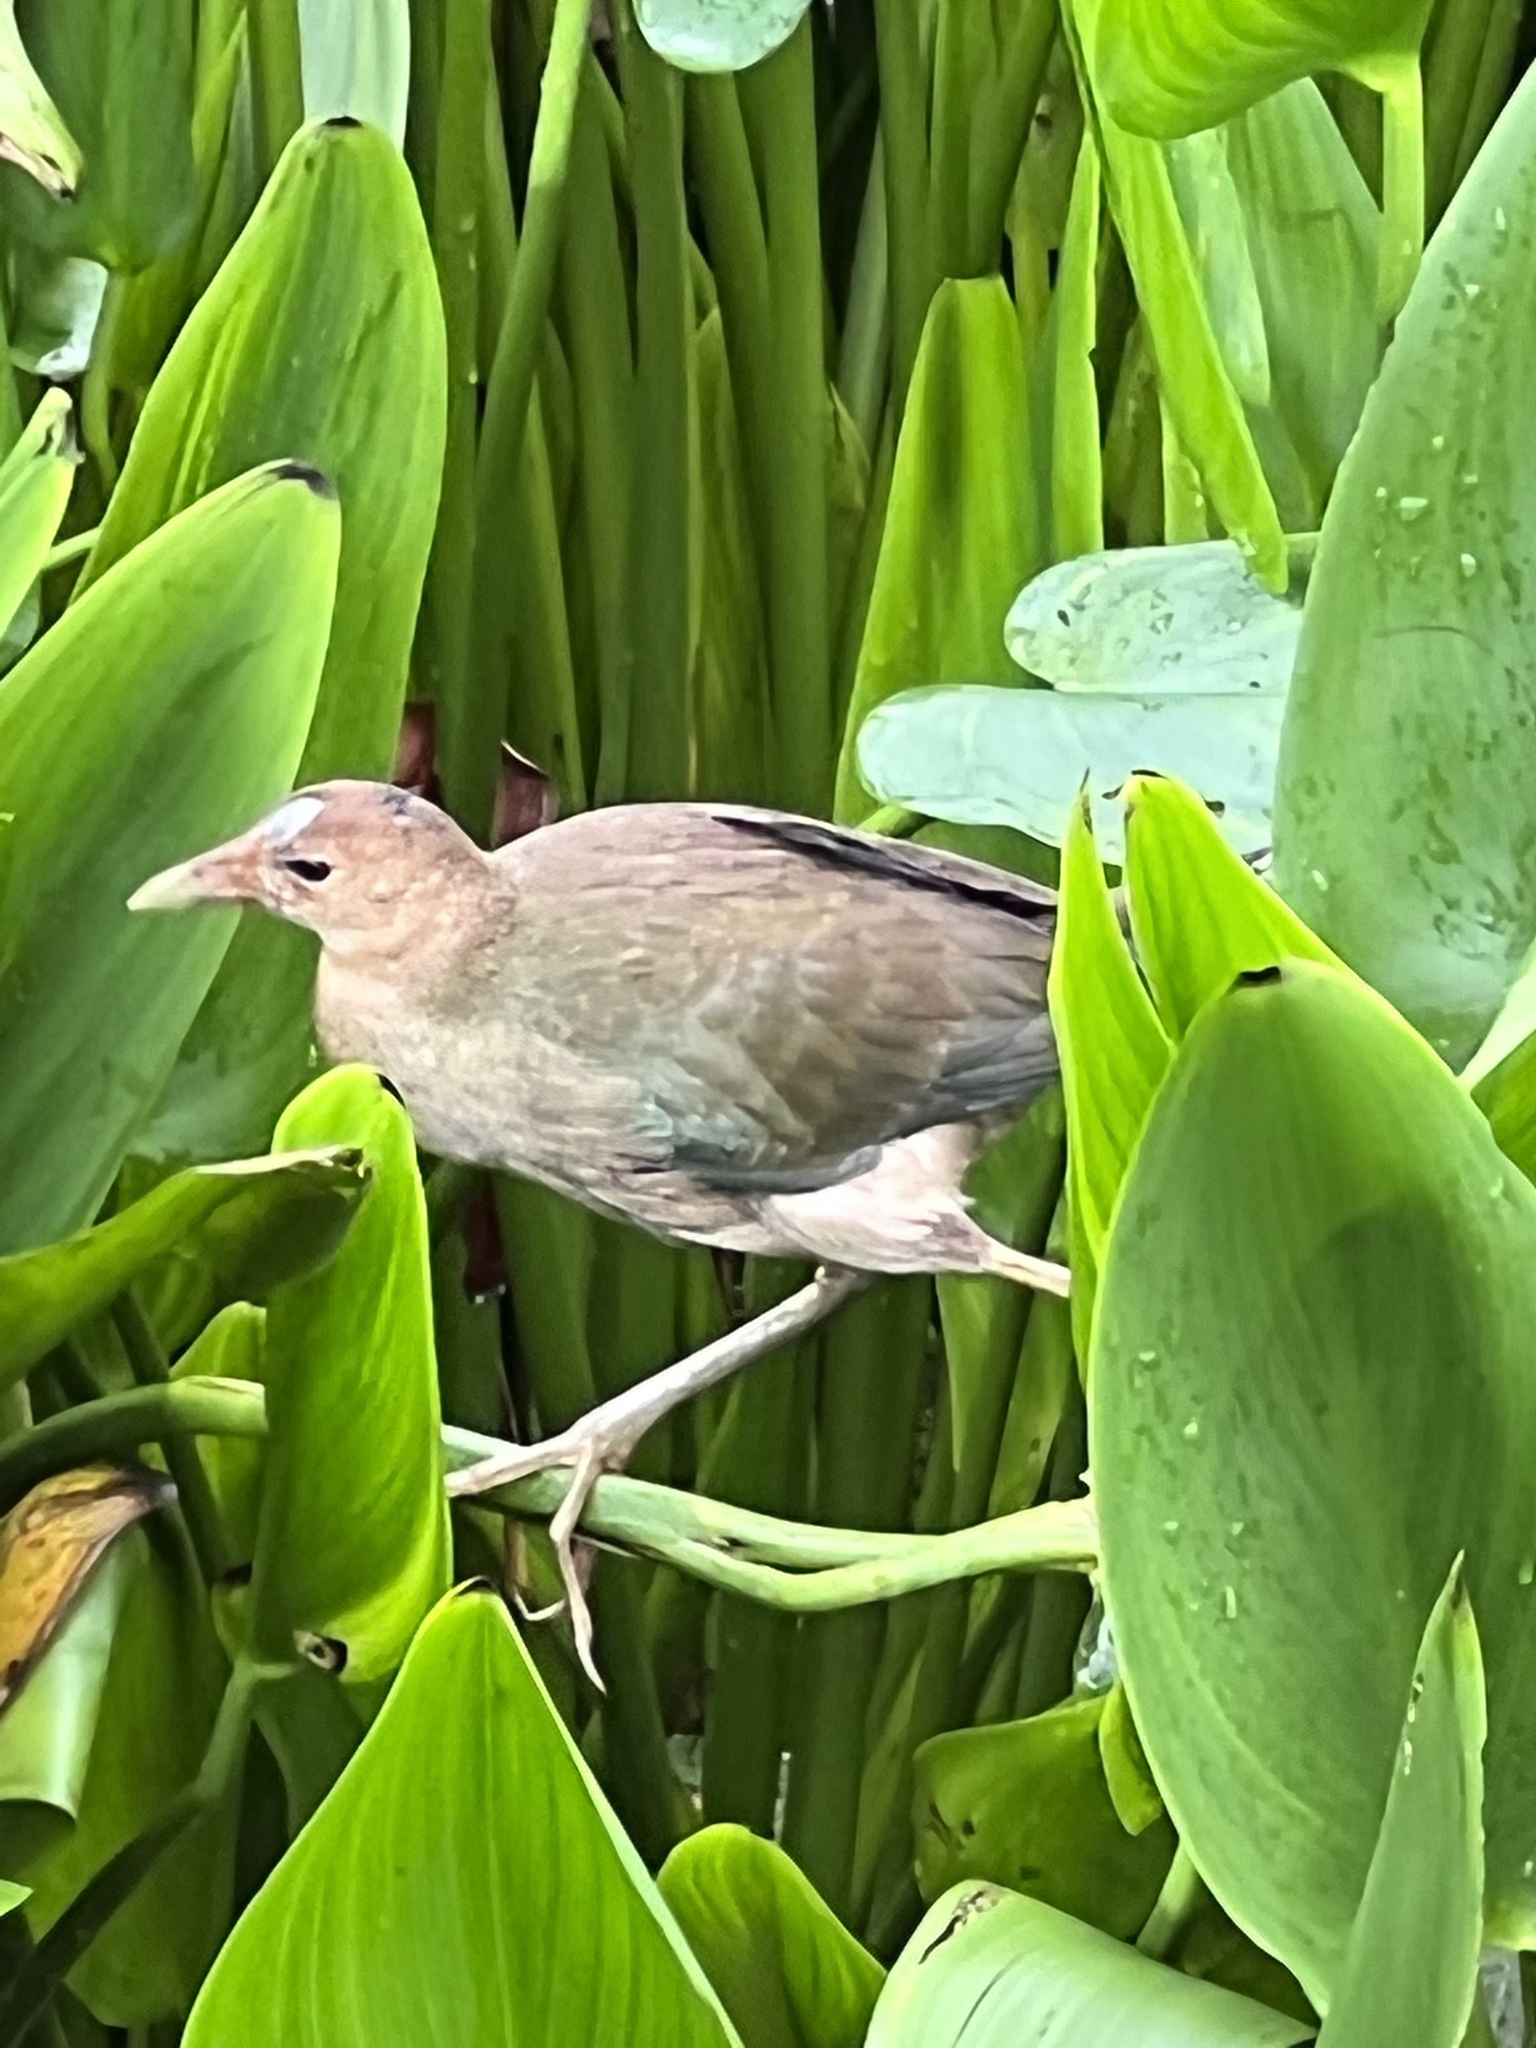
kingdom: Animalia
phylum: Chordata
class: Aves
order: Gruiformes
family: Rallidae
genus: Porphyrio
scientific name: Porphyrio martinica
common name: Purple gallinule
